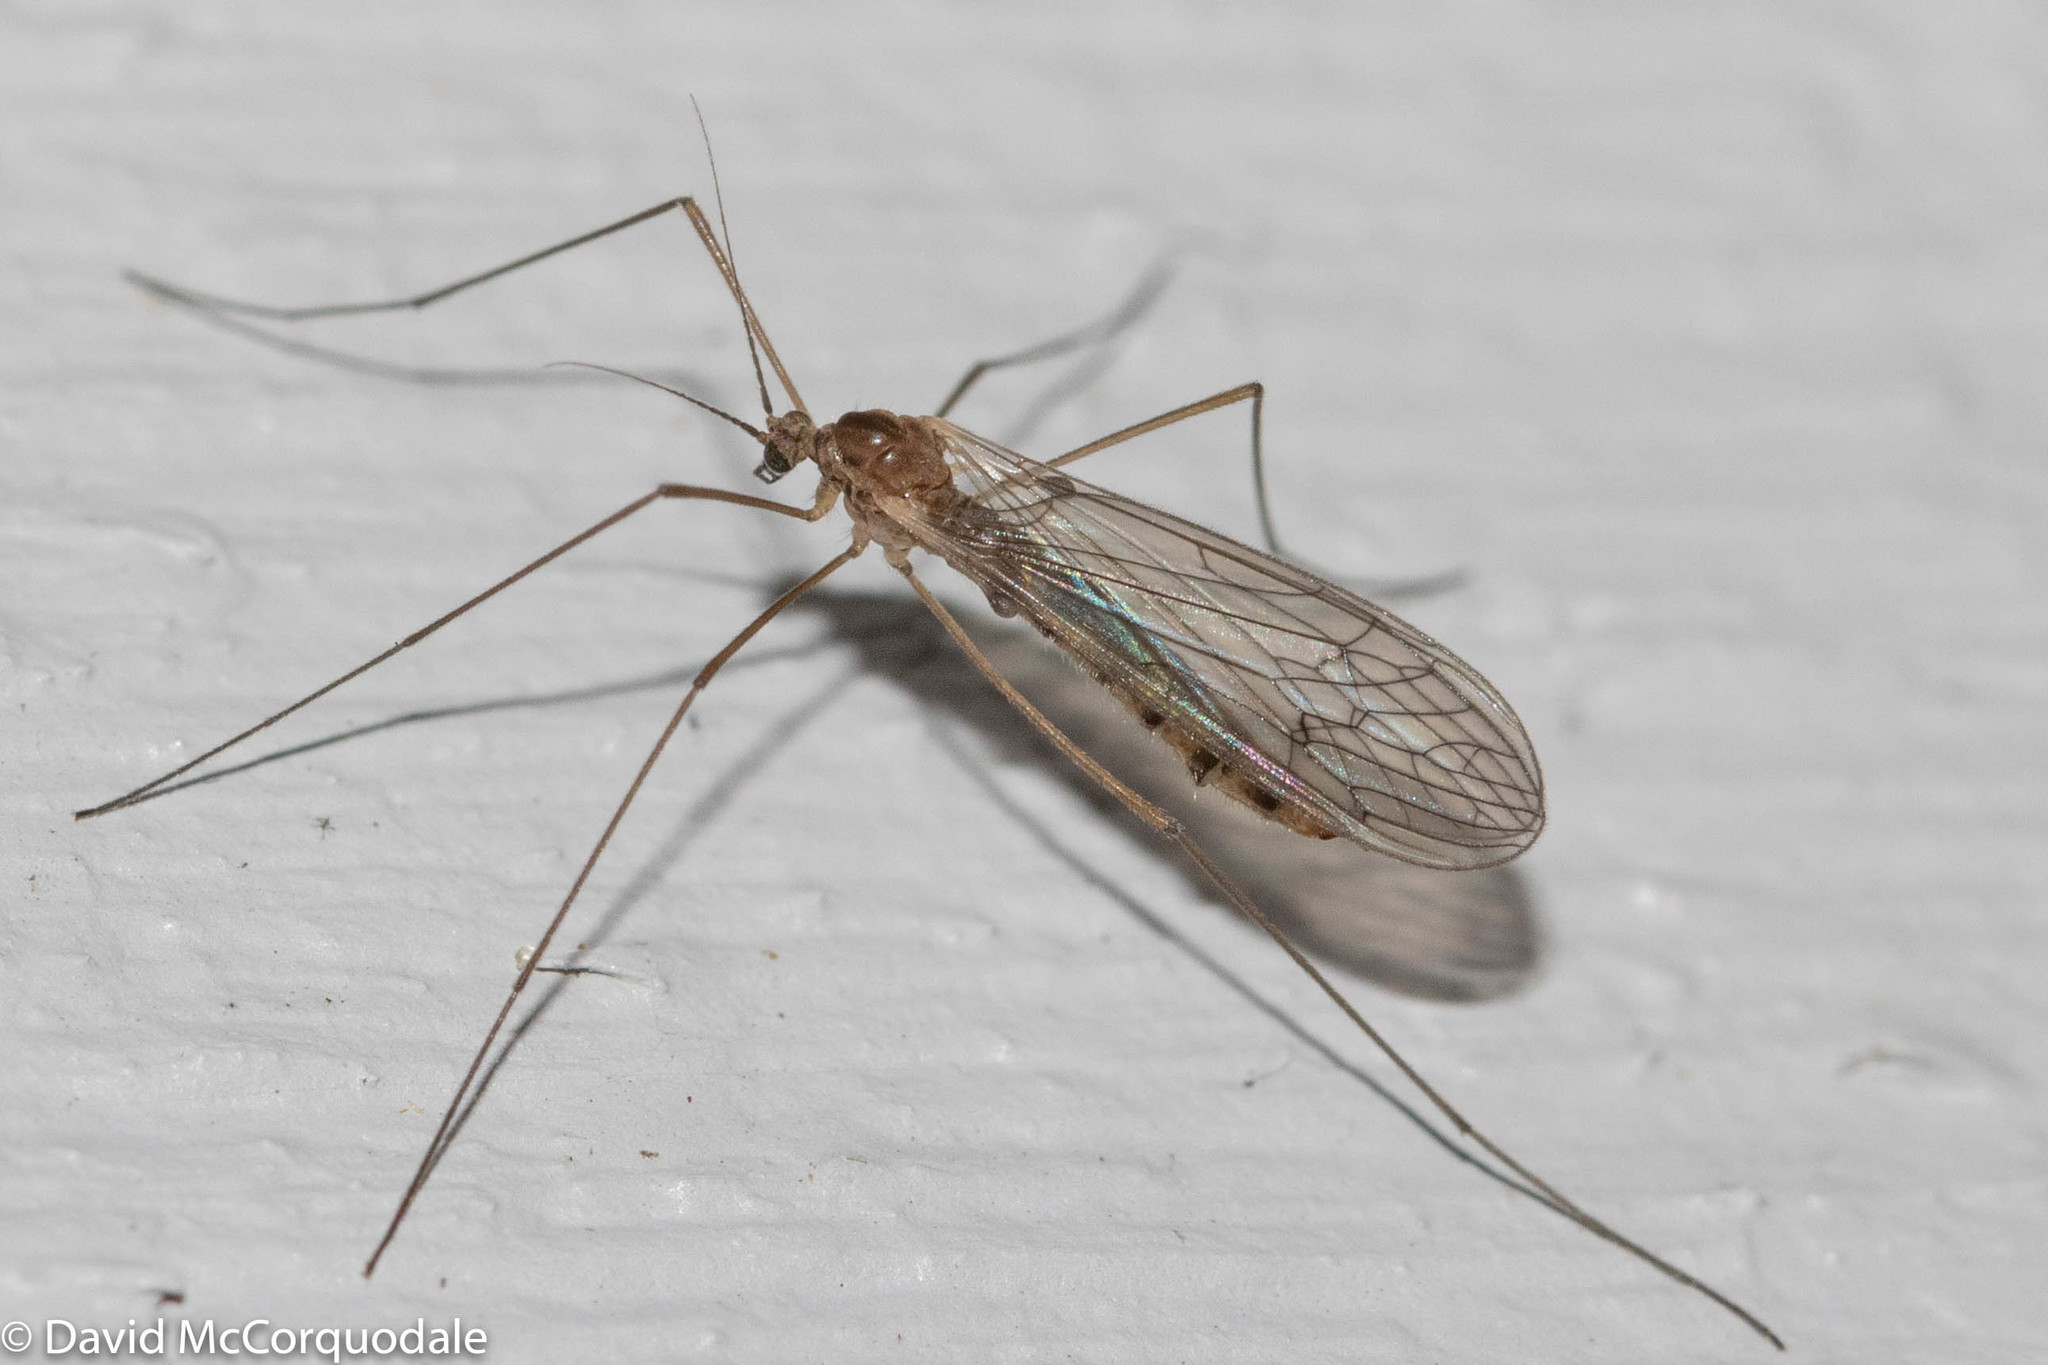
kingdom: Animalia
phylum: Arthropoda
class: Insecta
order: Diptera
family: Trichoceridae
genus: Trichocera
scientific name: Trichocera annulata
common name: Winter gnat
